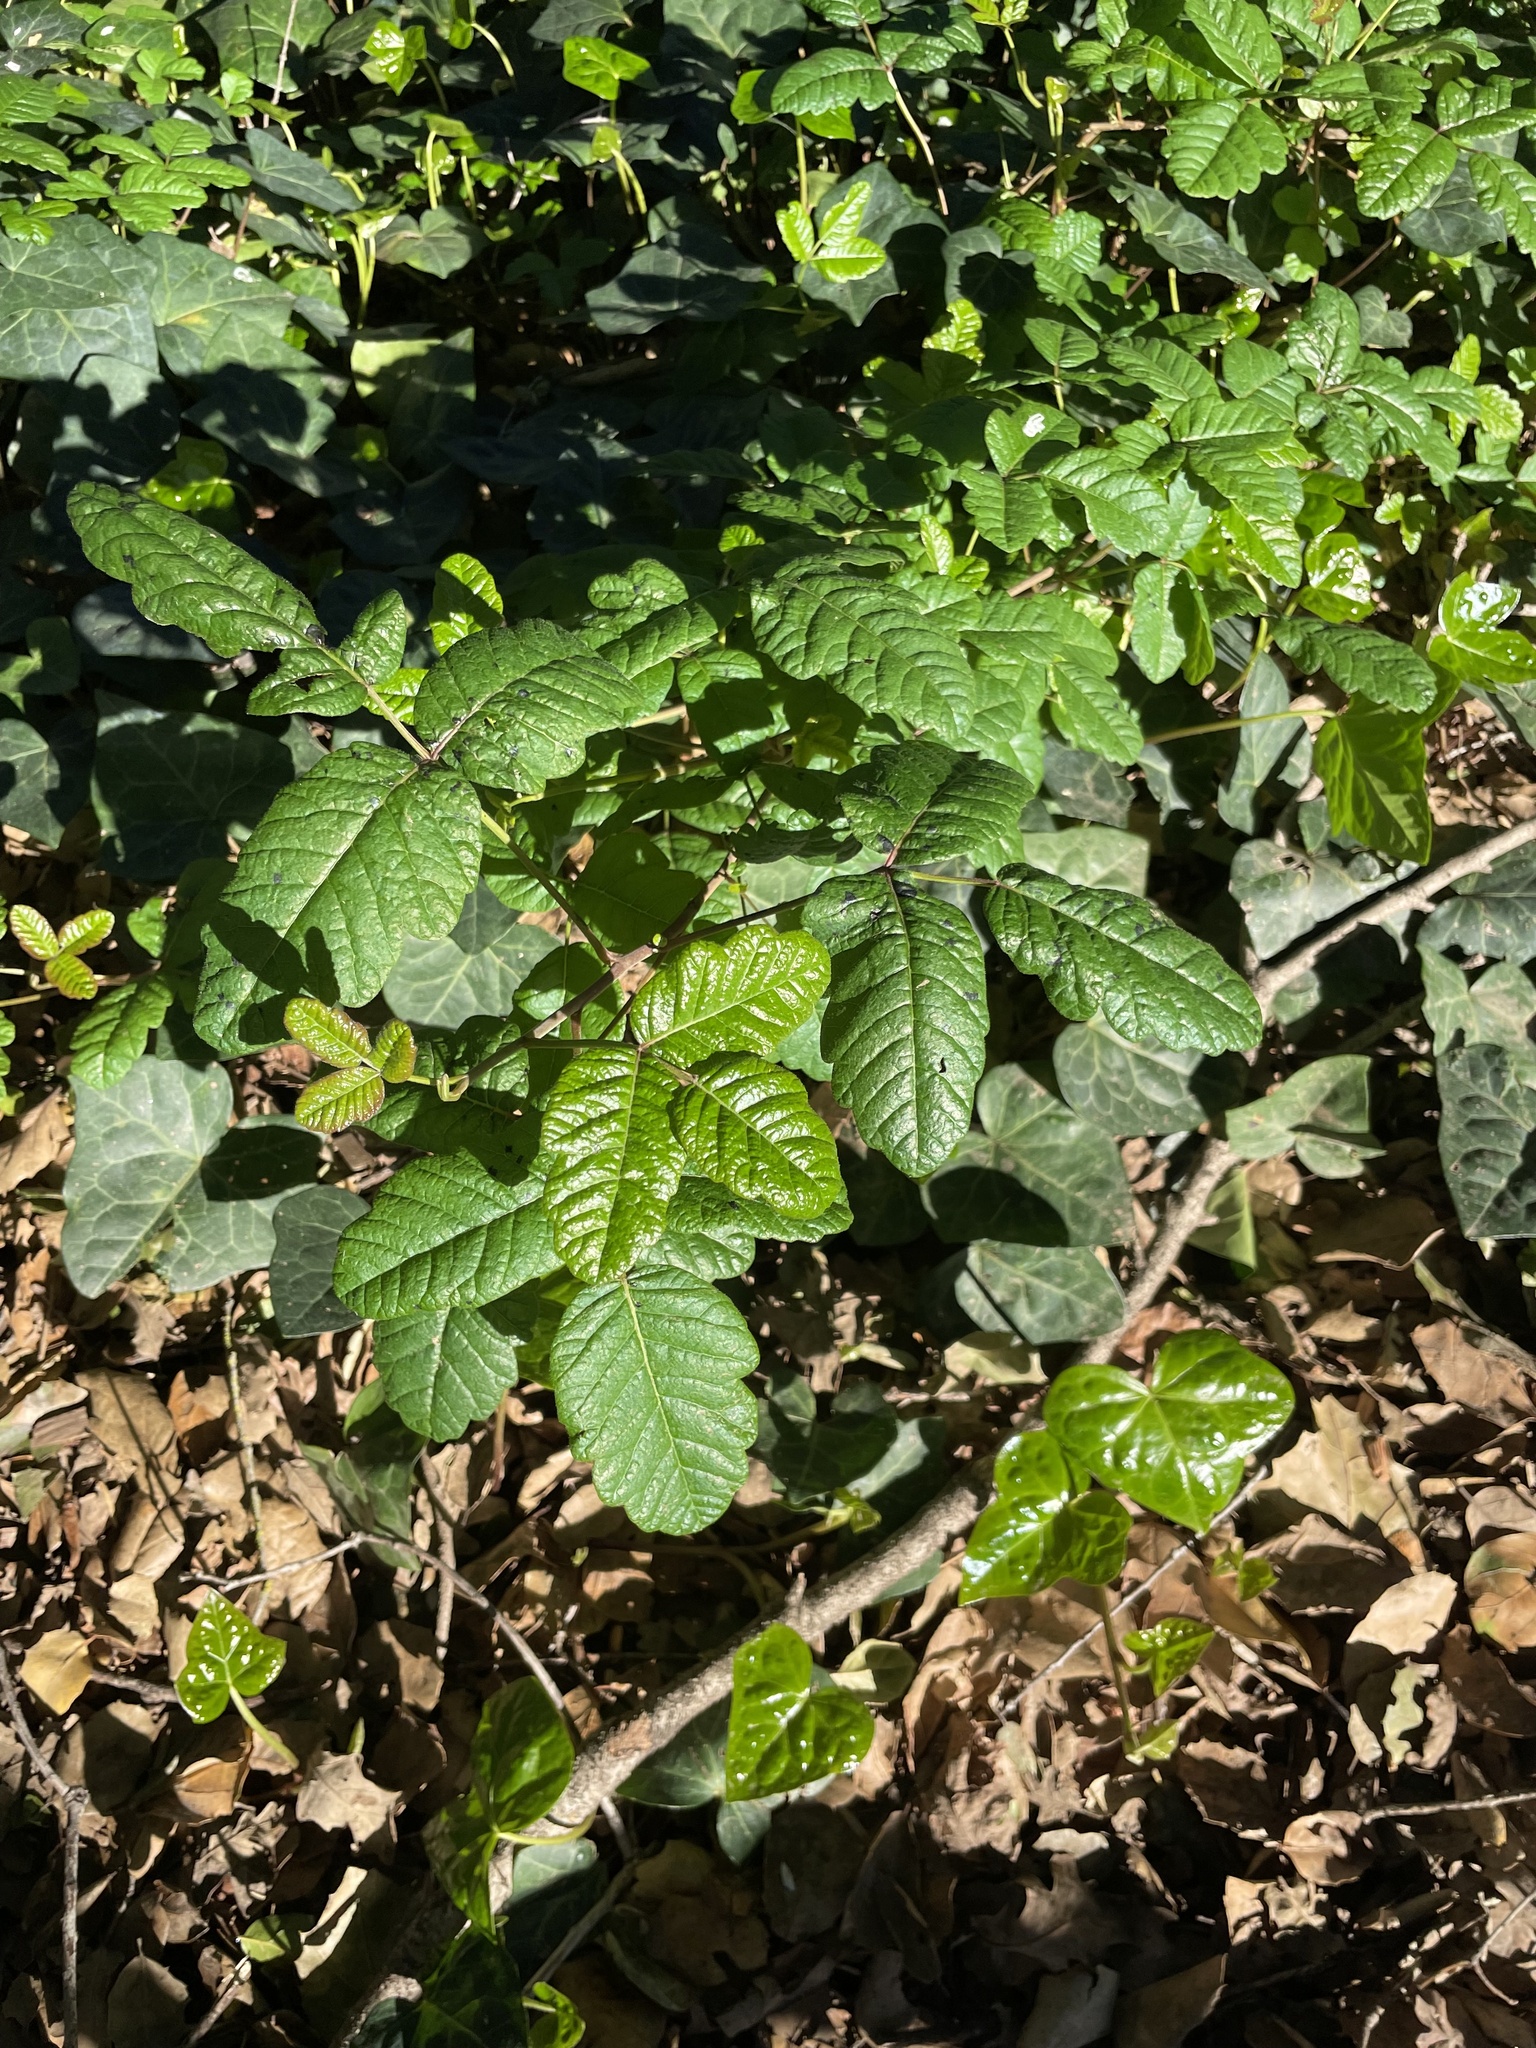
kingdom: Plantae
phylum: Tracheophyta
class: Magnoliopsida
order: Sapindales
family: Anacardiaceae
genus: Toxicodendron
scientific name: Toxicodendron diversilobum
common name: Pacific poison-oak
